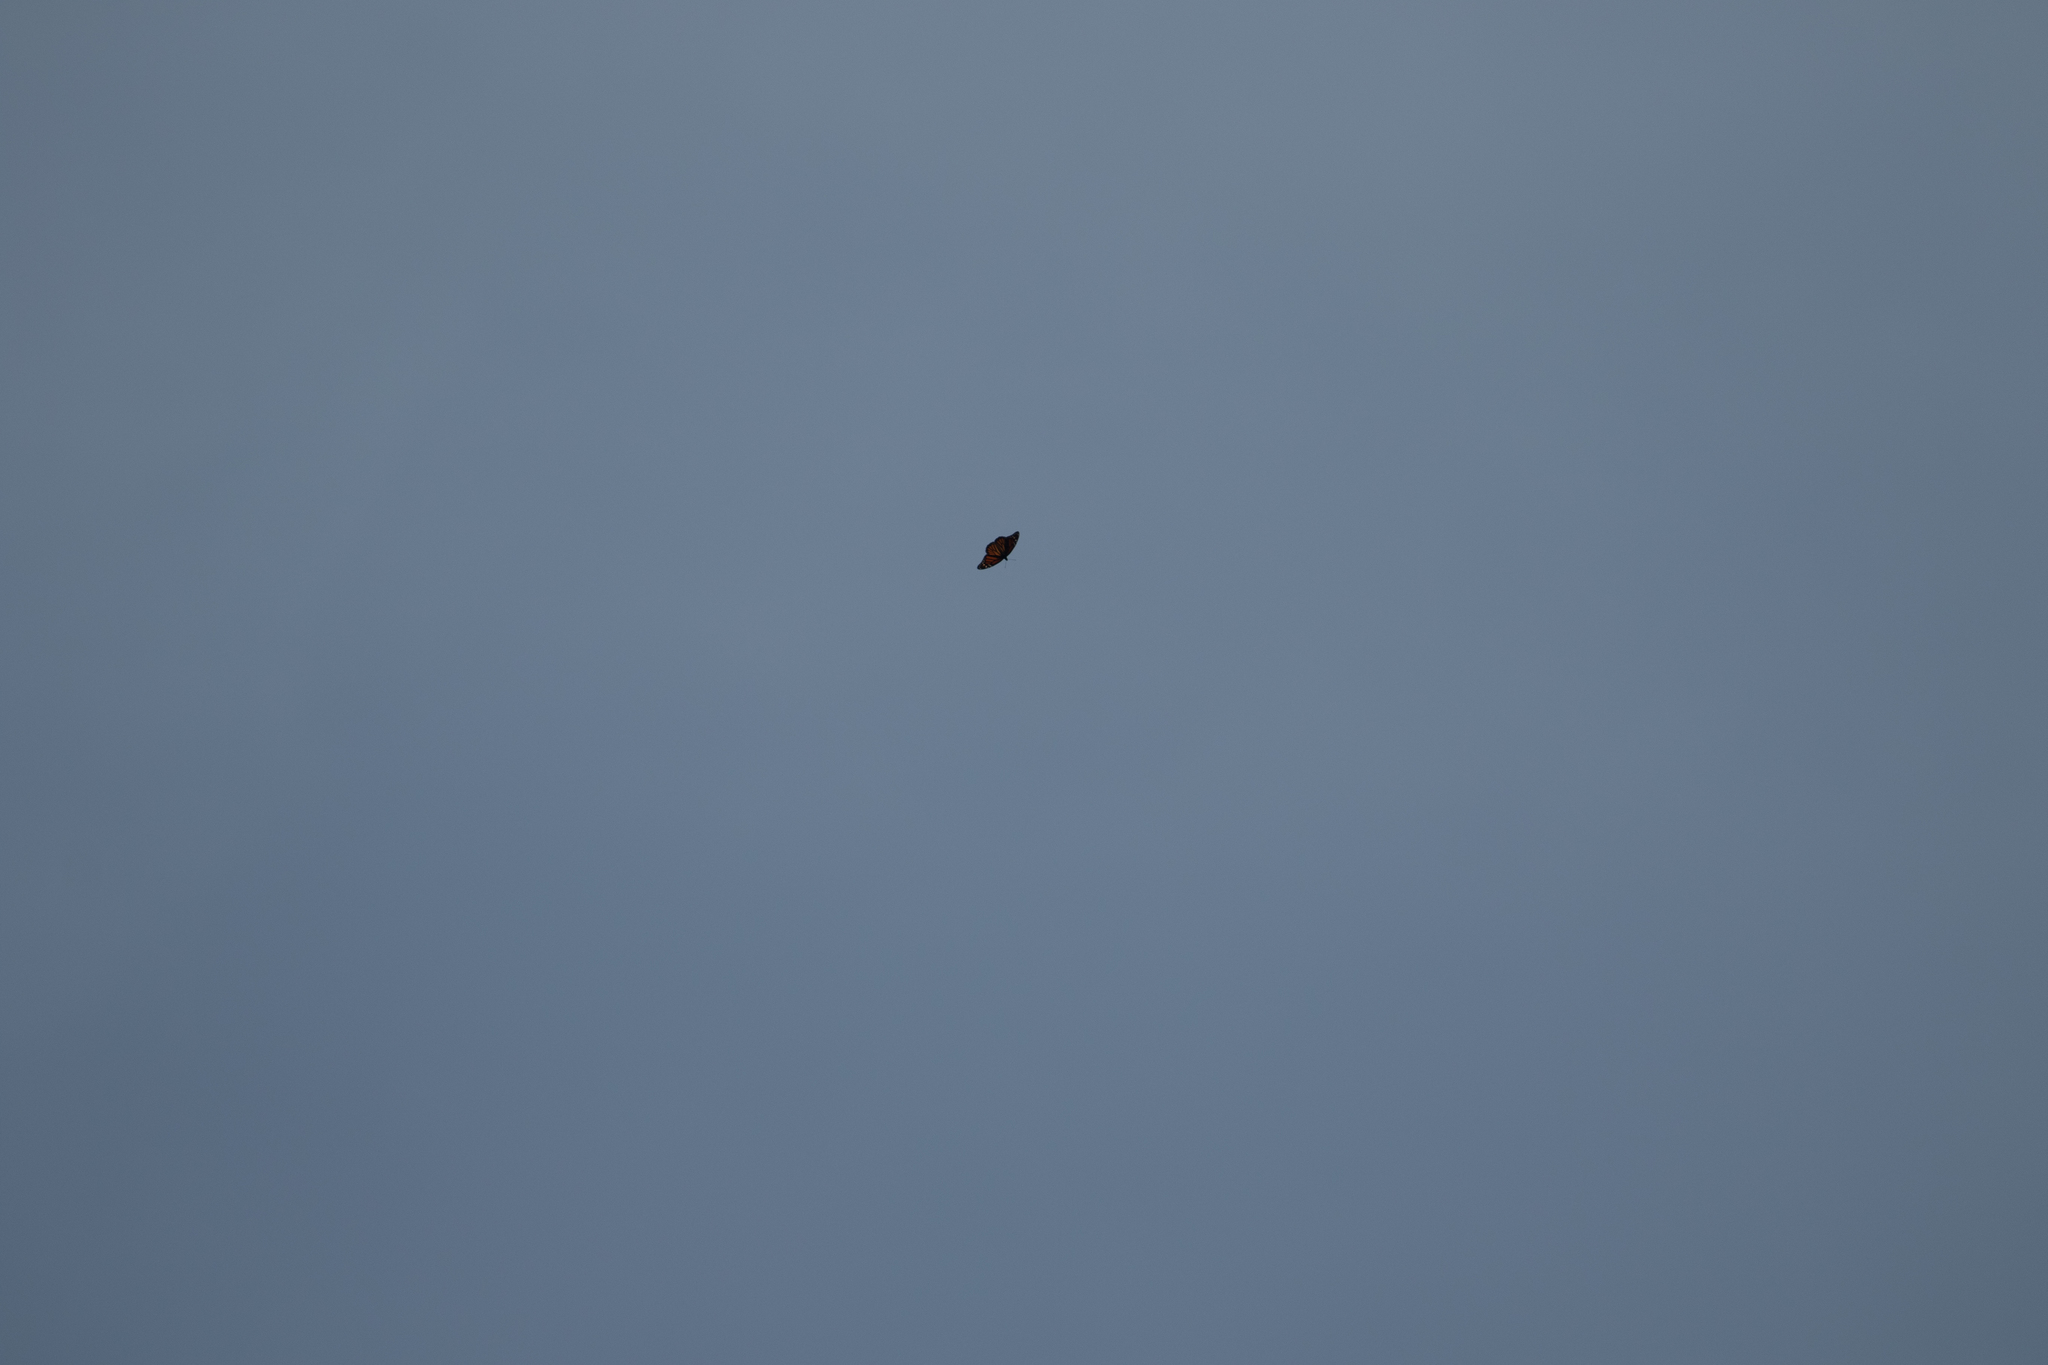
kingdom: Animalia
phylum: Arthropoda
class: Insecta
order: Lepidoptera
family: Nymphalidae
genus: Danaus
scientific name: Danaus plexippus
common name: Monarch
